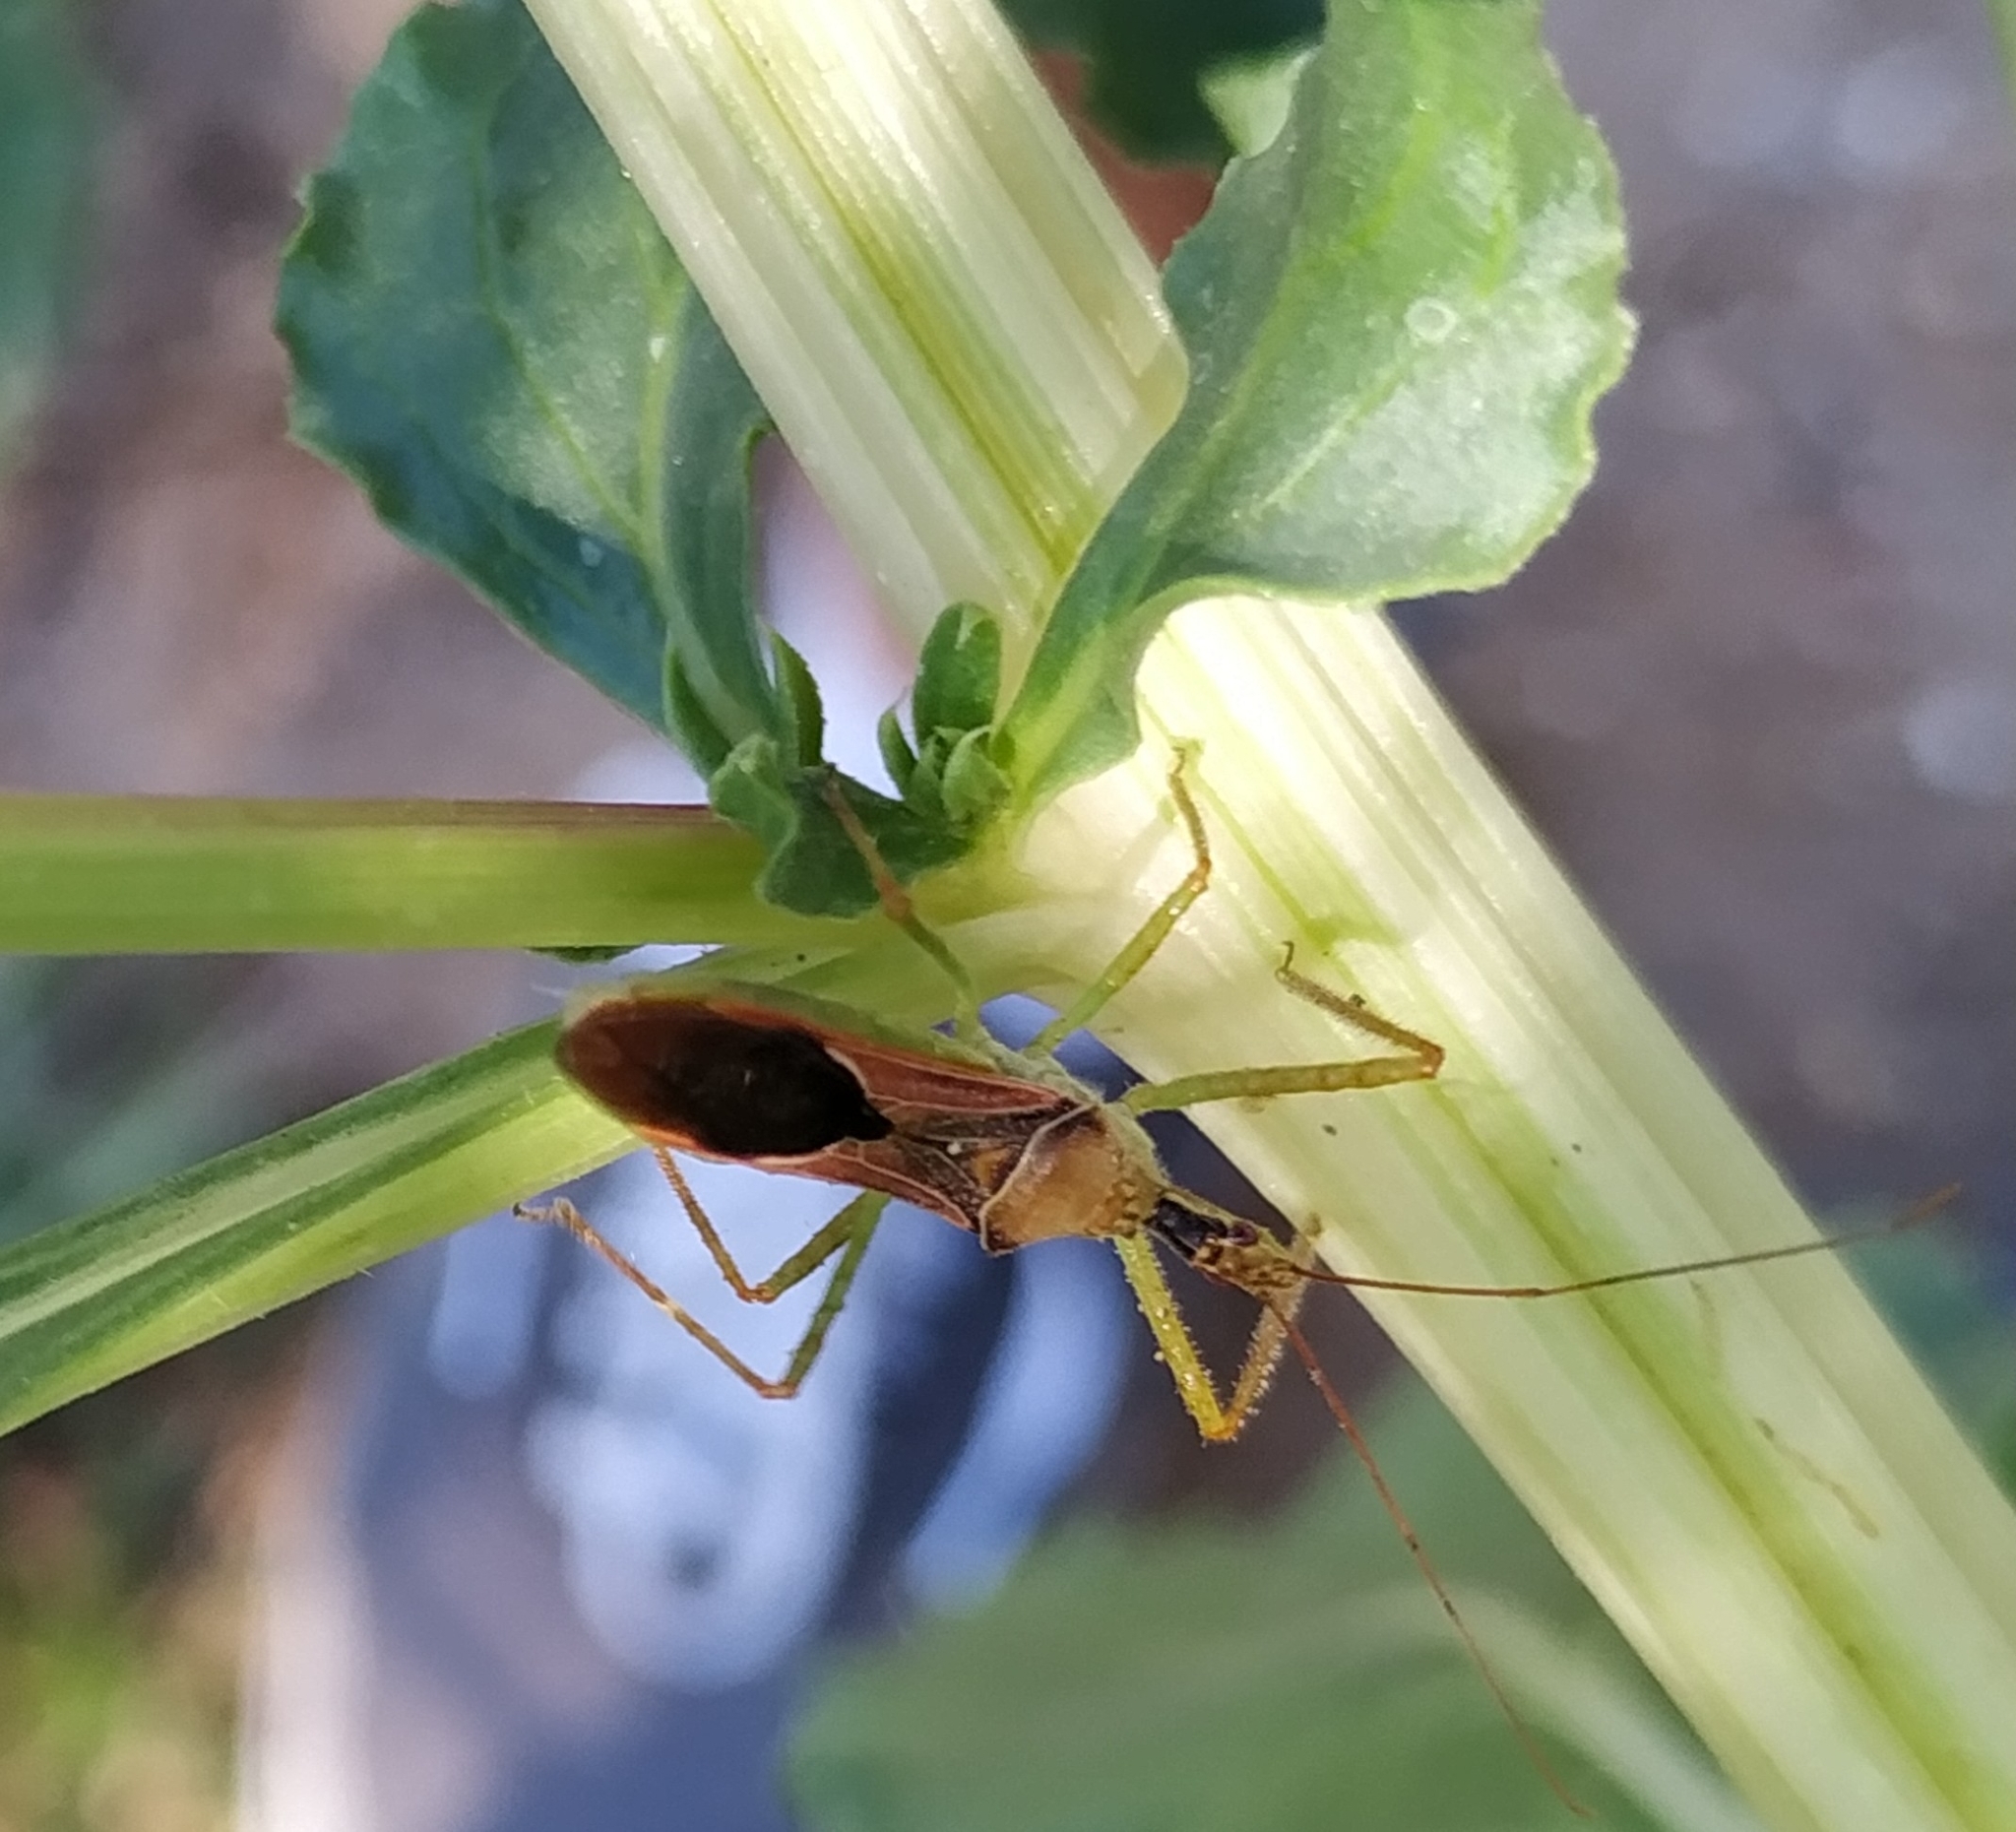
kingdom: Animalia
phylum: Arthropoda
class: Insecta
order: Hemiptera
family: Reduviidae
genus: Zelus
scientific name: Zelus renardii
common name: Assassin bug
